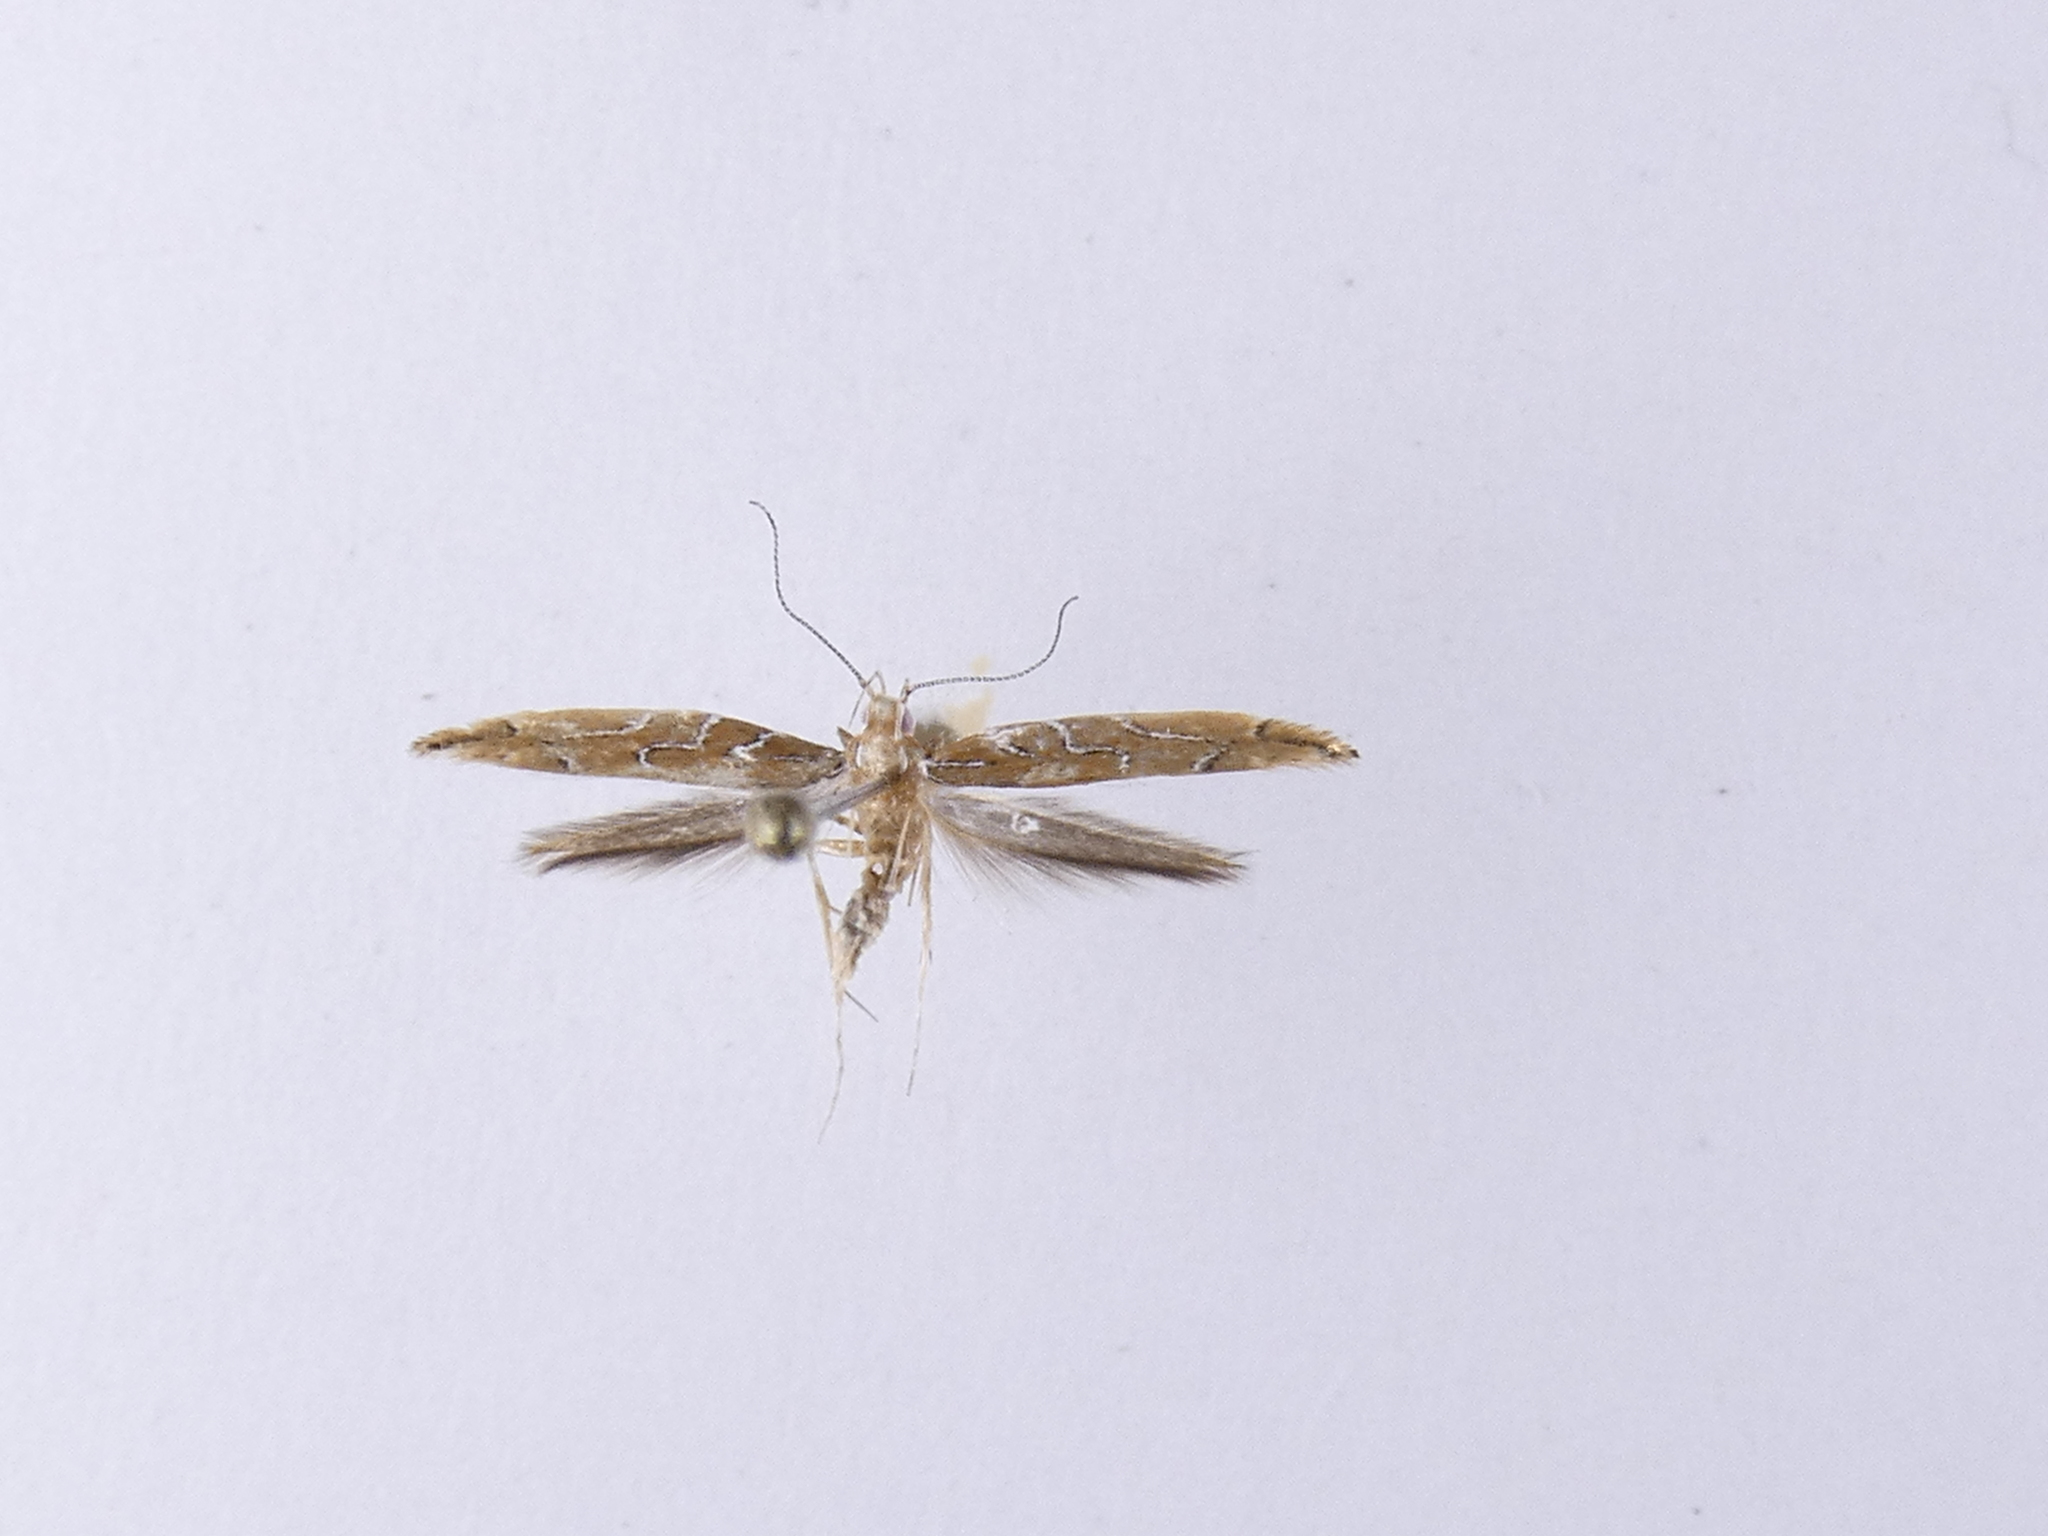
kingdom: Animalia
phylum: Arthropoda
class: Insecta
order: Lepidoptera
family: Cosmopterigidae
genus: Pyroderces
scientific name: Pyroderces apparitella
